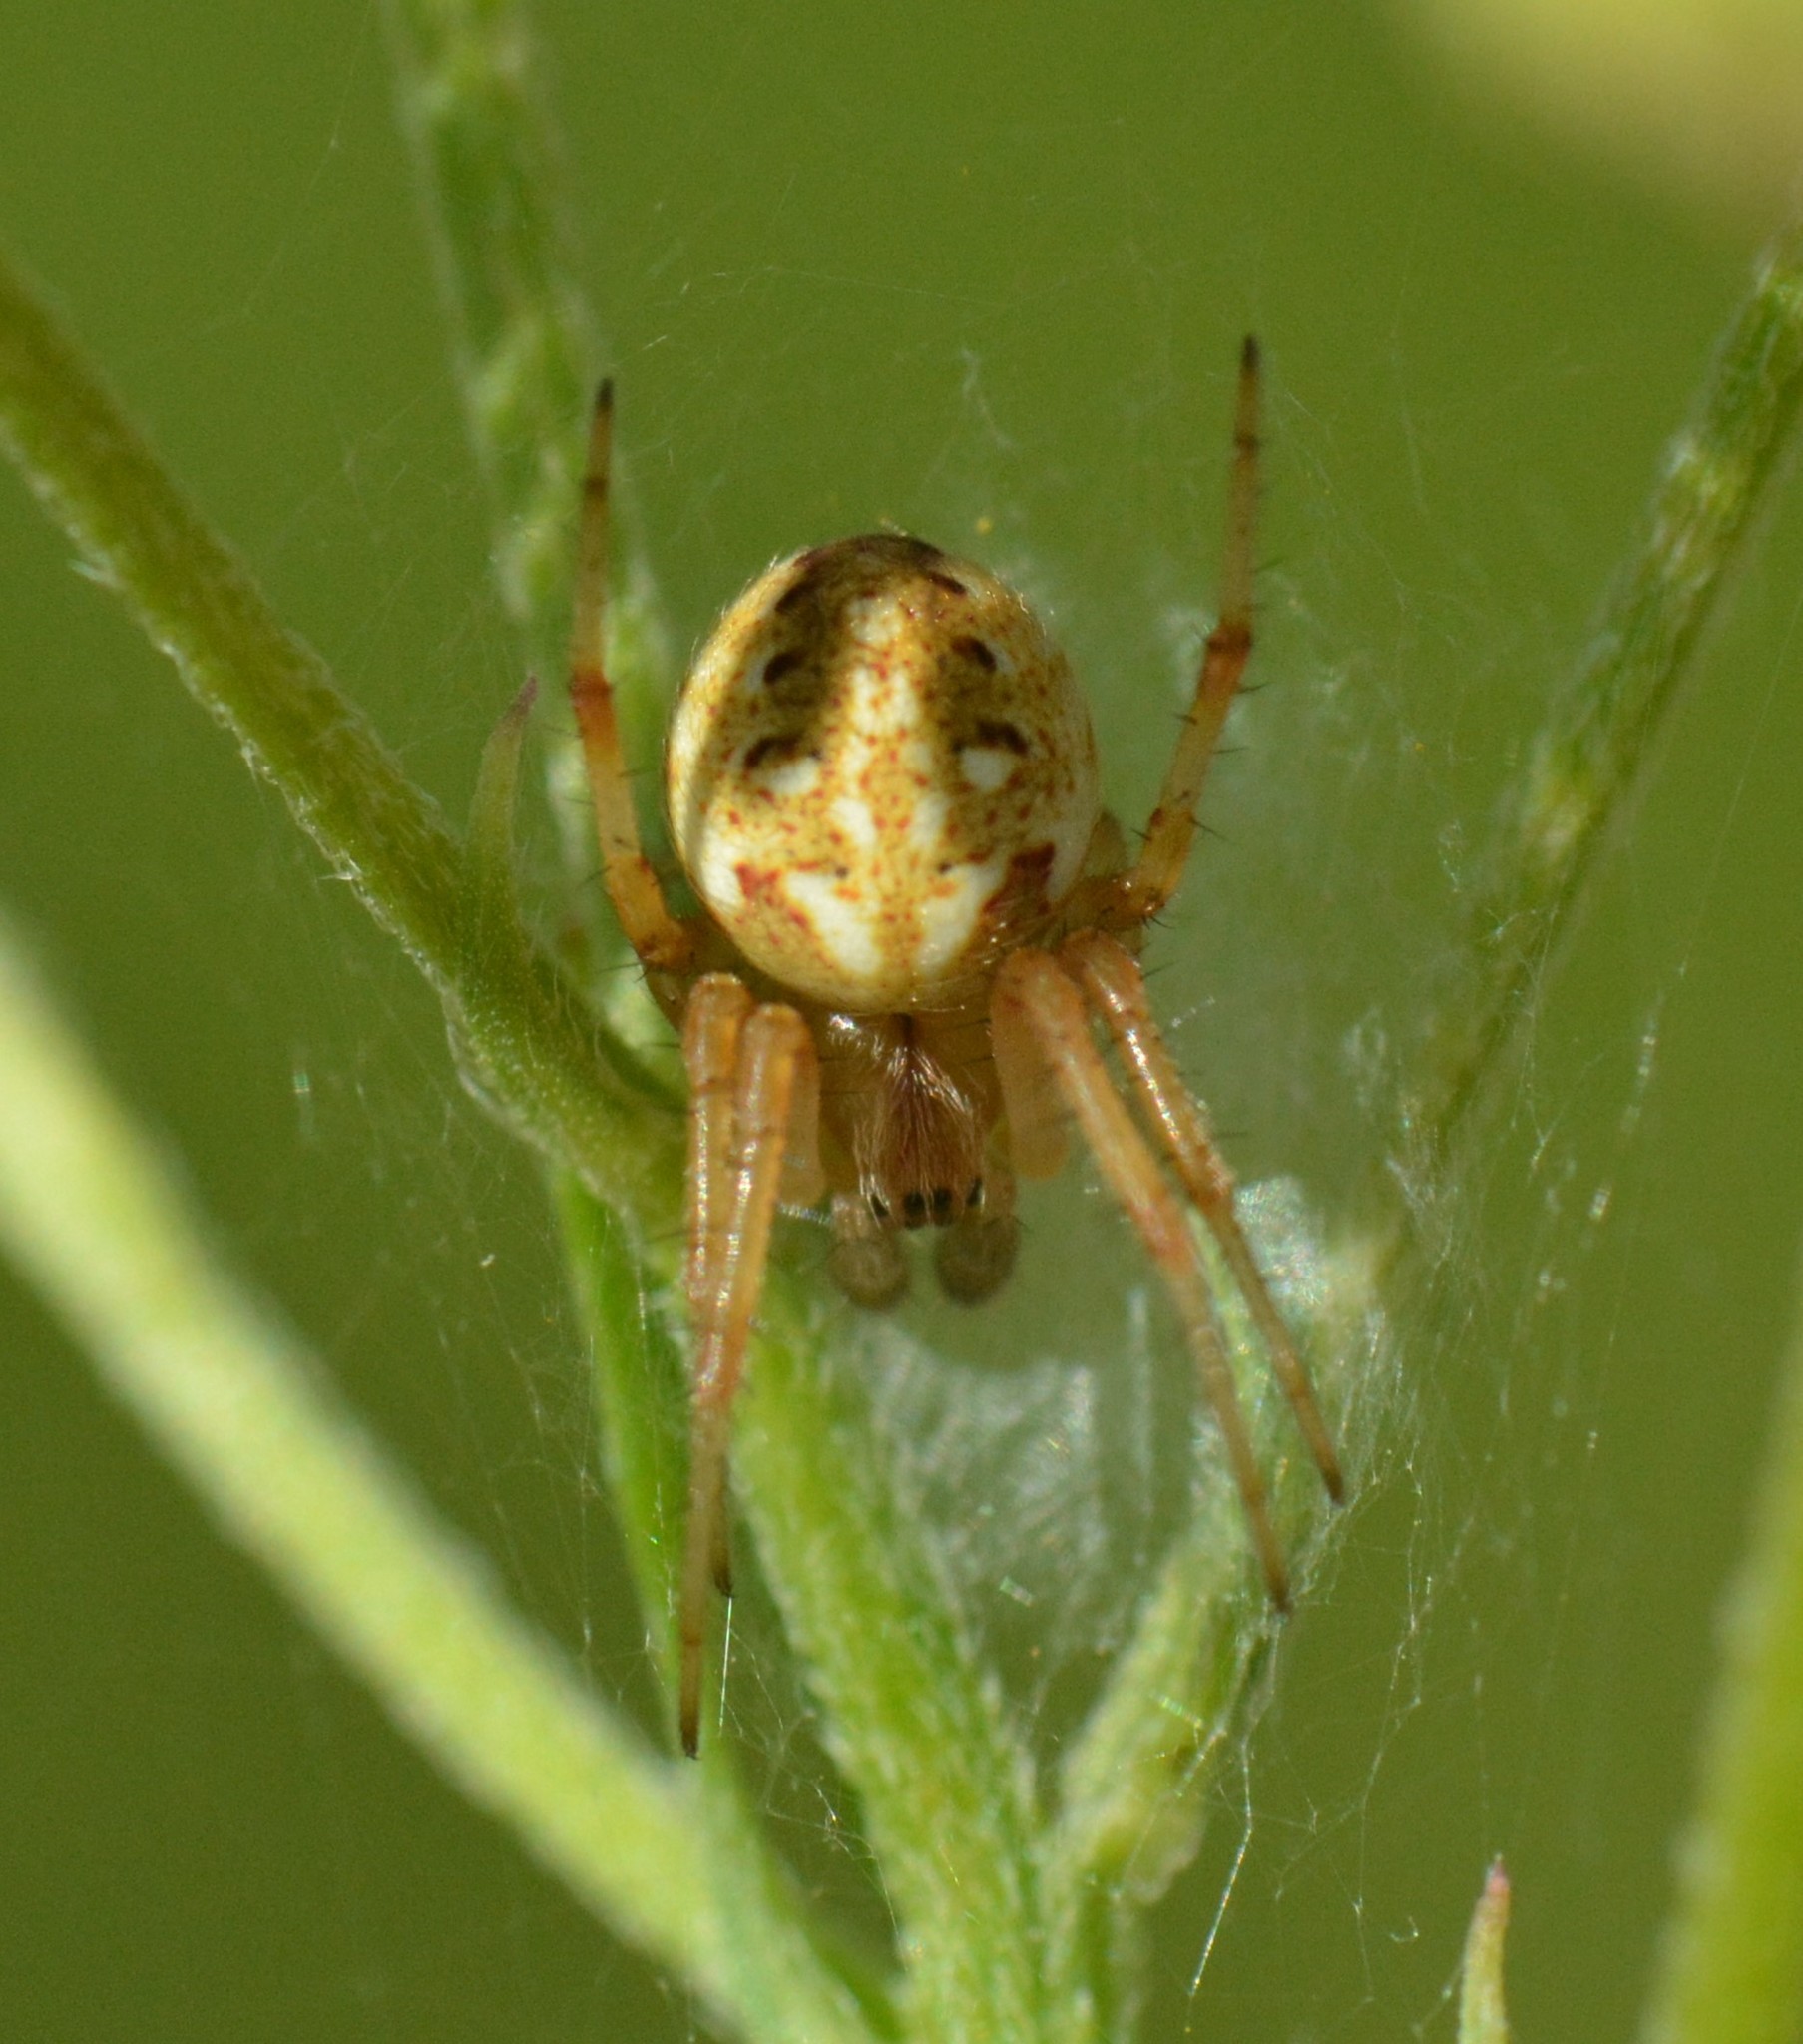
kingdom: Animalia
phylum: Arthropoda
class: Arachnida
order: Araneae
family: Araneidae
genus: Neoscona
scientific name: Neoscona arabesca
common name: Orb weavers
